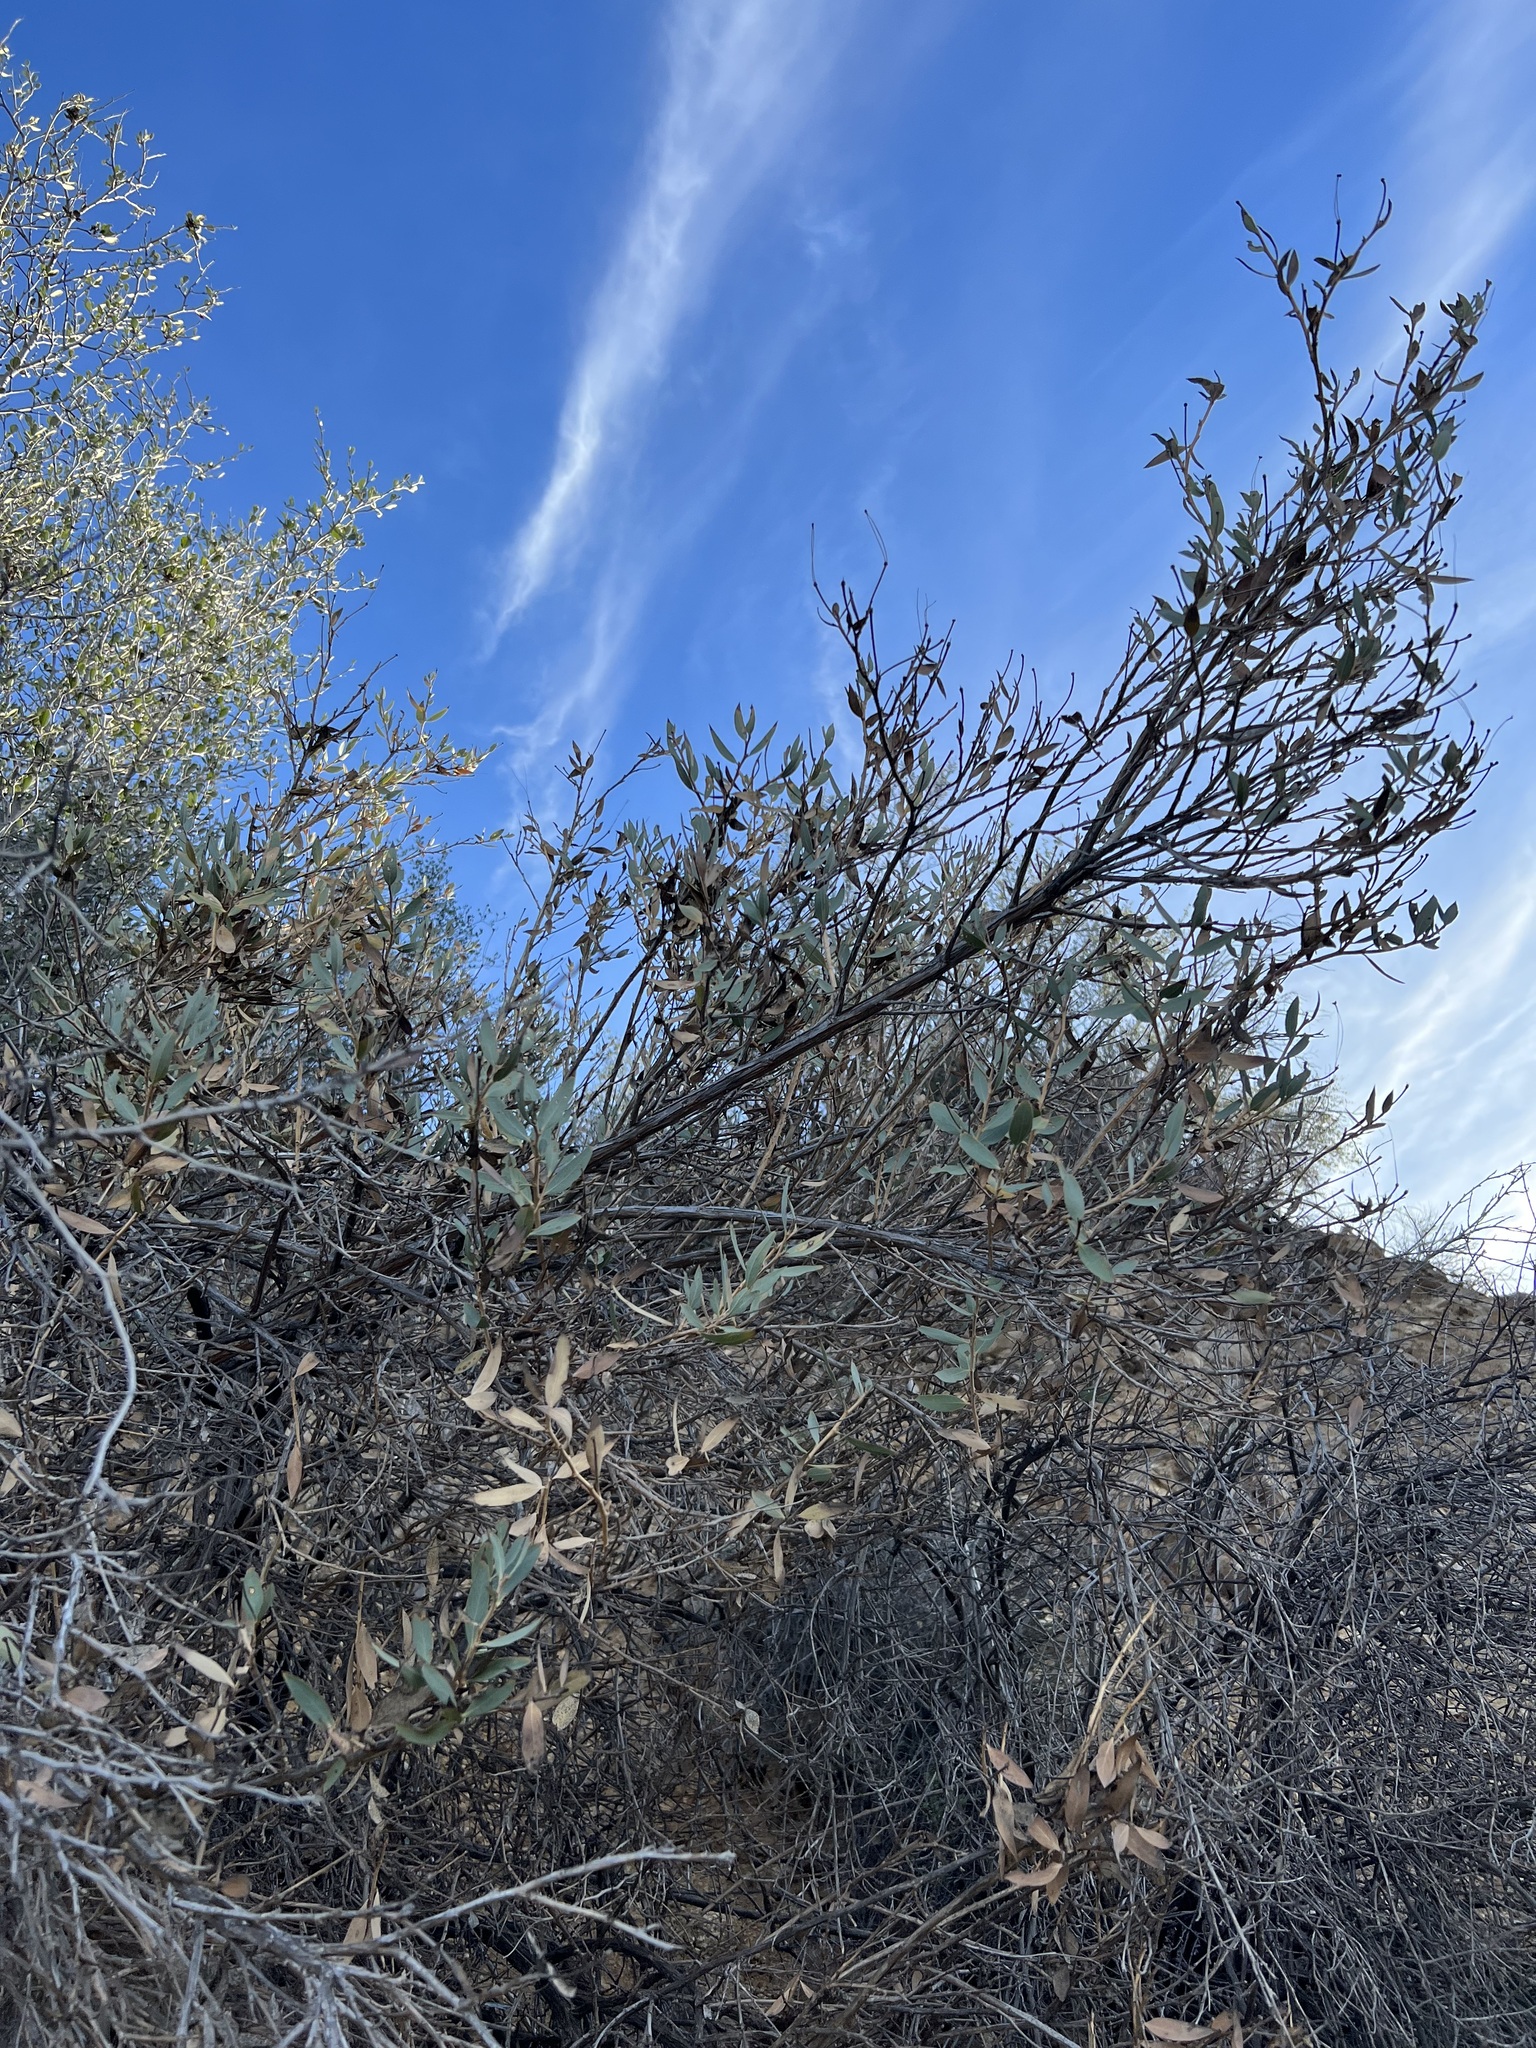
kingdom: Plantae
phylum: Tracheophyta
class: Magnoliopsida
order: Ranunculales
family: Papaveraceae
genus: Dendromecon
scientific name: Dendromecon rigida
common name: Tree poppy
